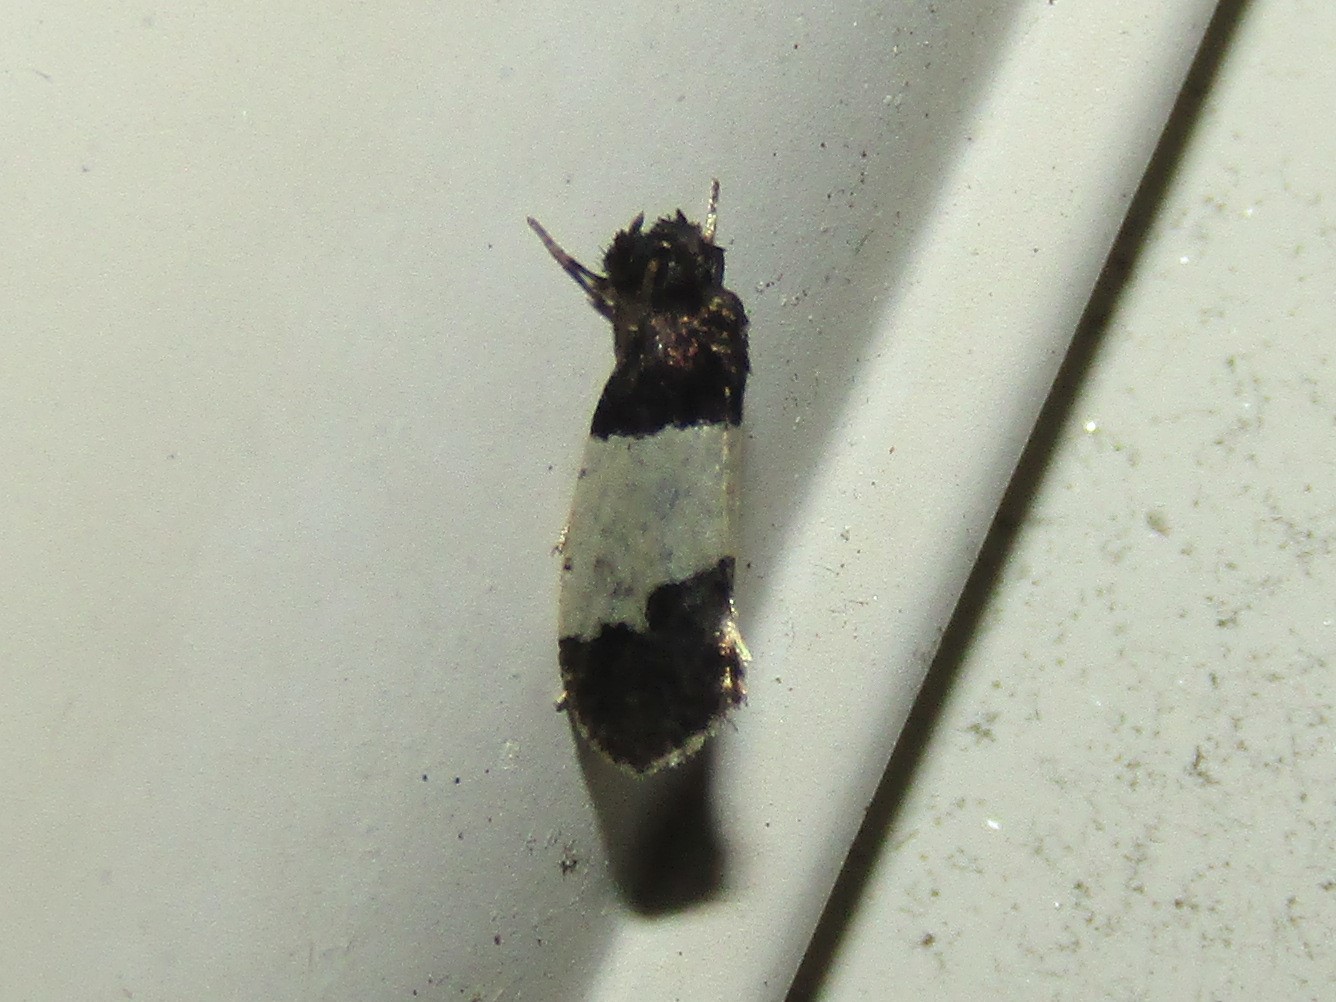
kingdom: Animalia
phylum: Arthropoda
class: Insecta
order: Lepidoptera
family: Psychidae
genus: Kearfottia
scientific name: Kearfottia albifasciella
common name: White-patched kearfottia
